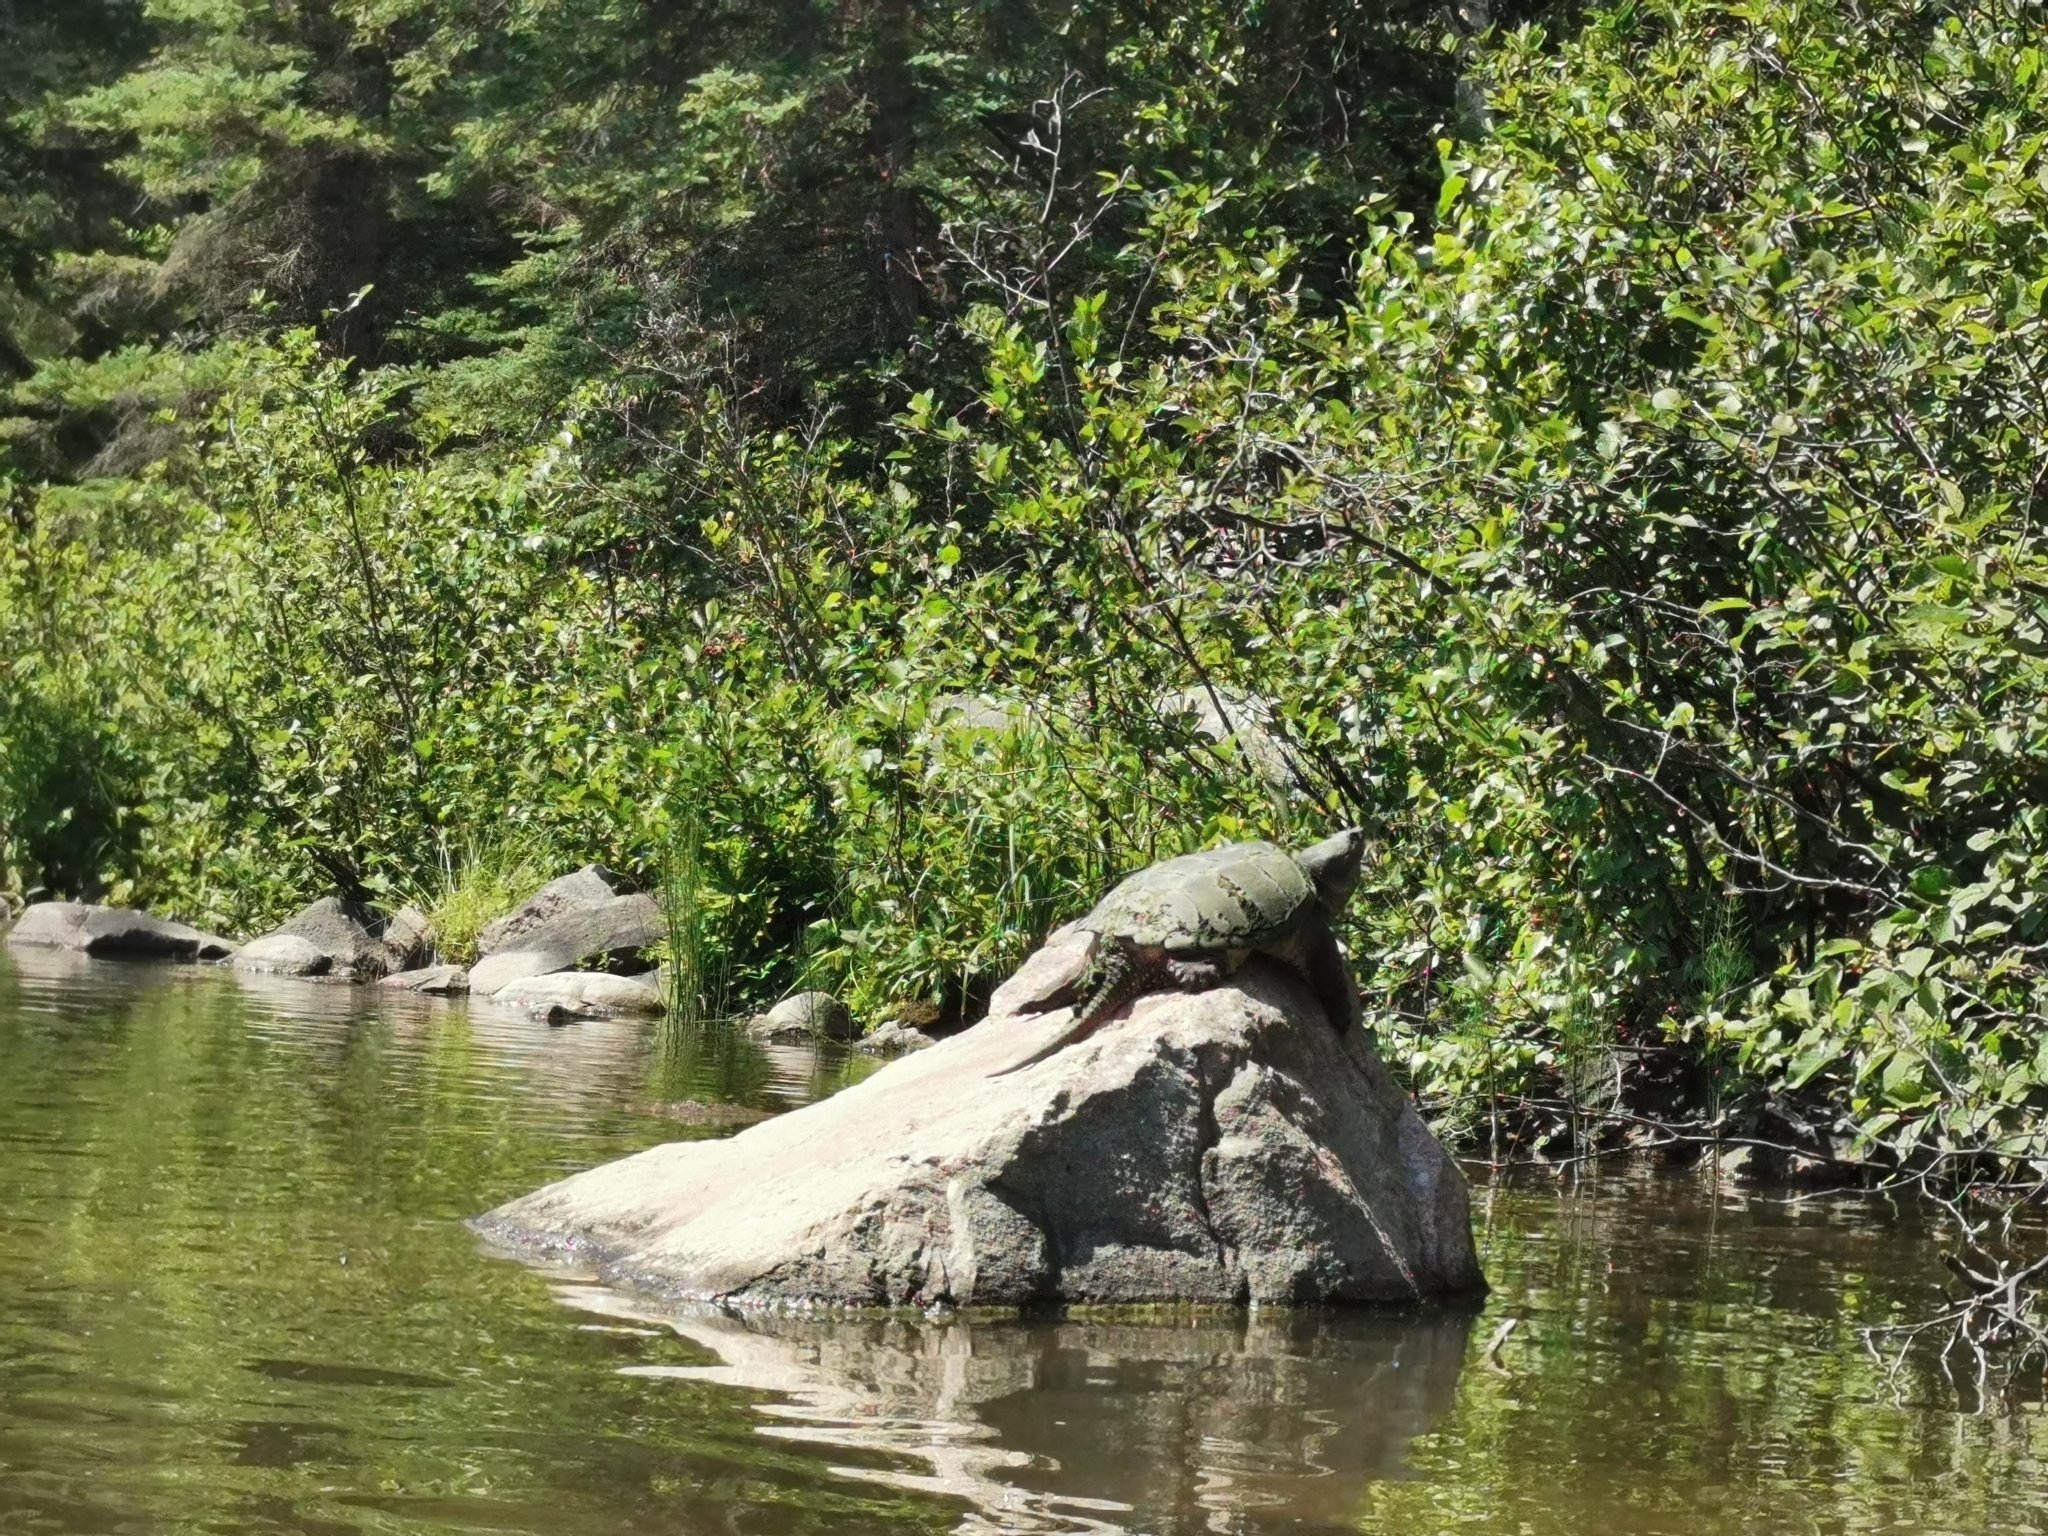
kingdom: Animalia
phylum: Chordata
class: Testudines
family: Chelydridae
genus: Chelydra
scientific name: Chelydra serpentina
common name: Common snapping turtle
